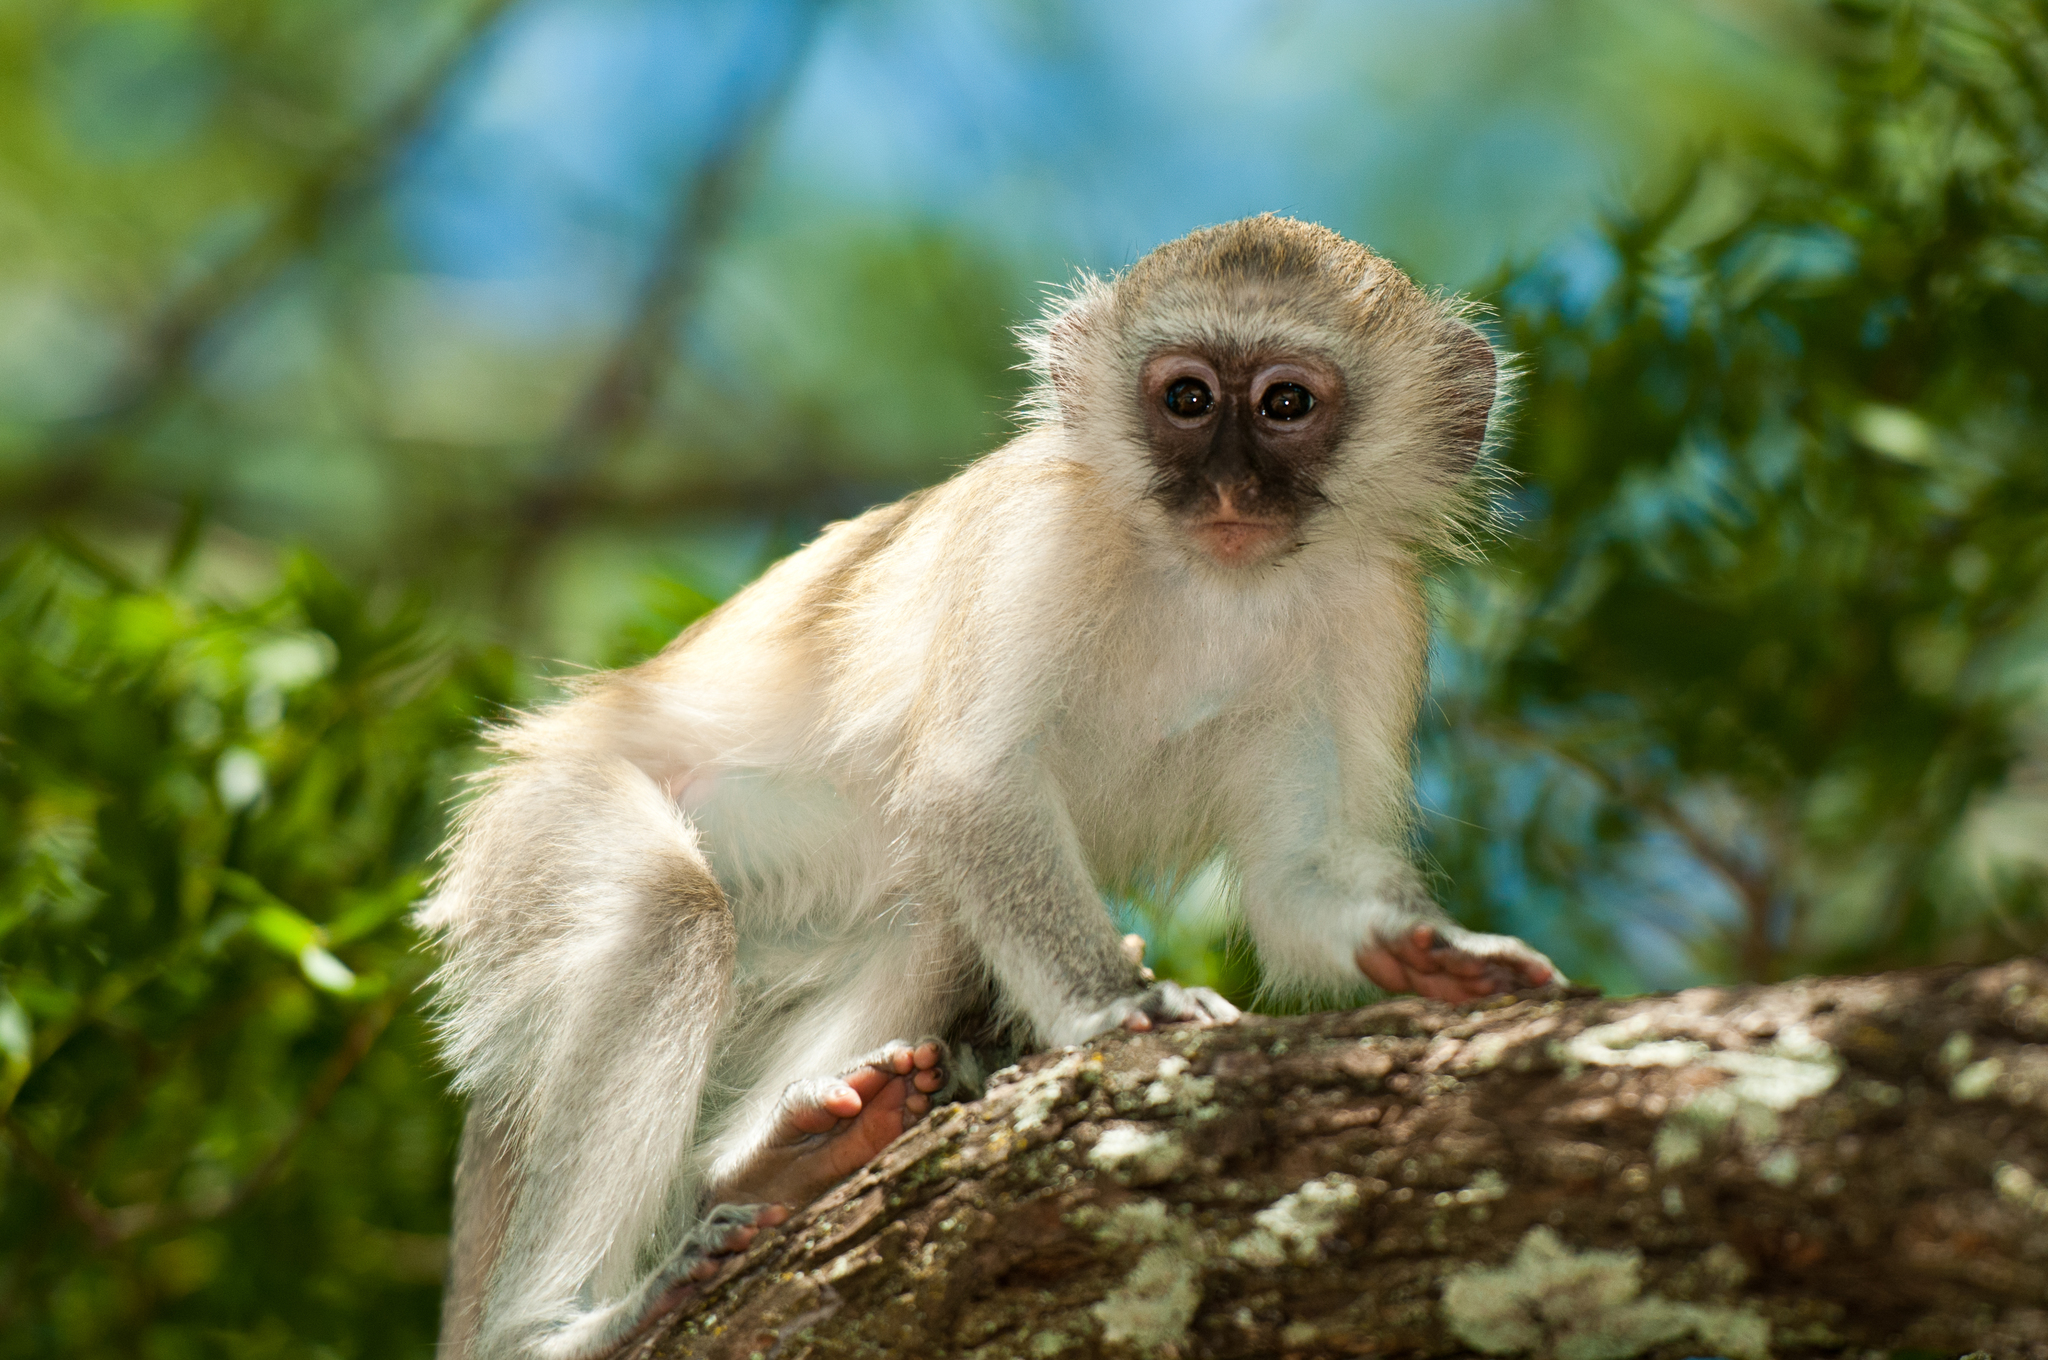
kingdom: Animalia
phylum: Chordata
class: Mammalia
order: Primates
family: Cercopithecidae
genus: Chlorocebus
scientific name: Chlorocebus pygerythrus
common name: Vervet monkey
